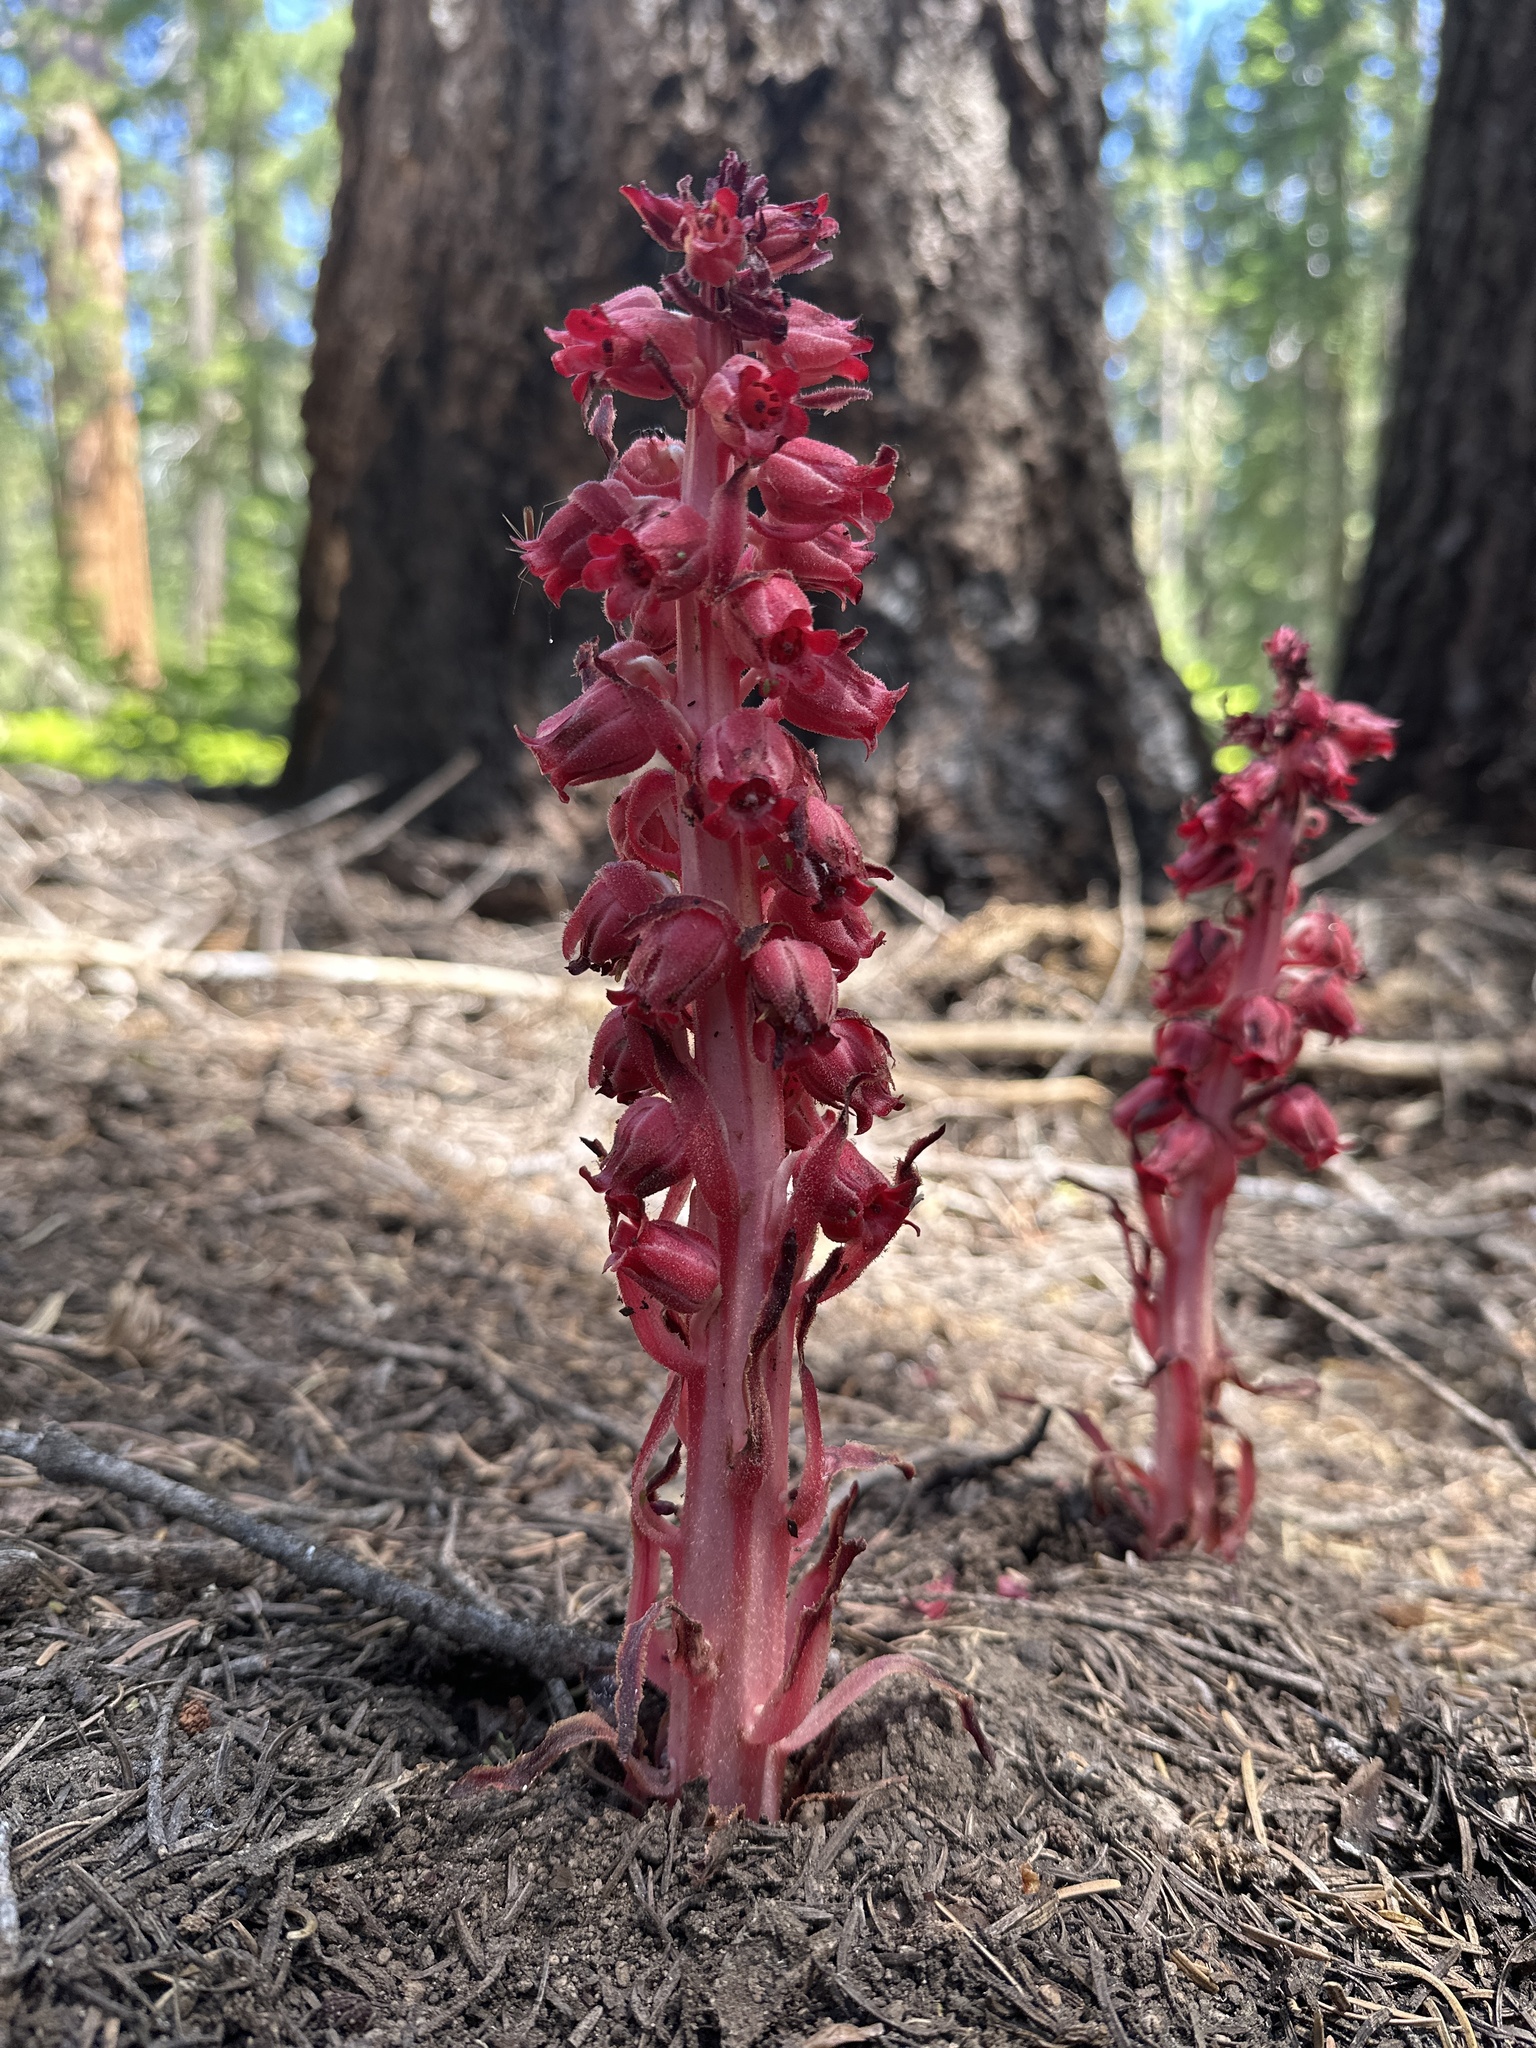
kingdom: Plantae
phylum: Tracheophyta
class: Magnoliopsida
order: Ericales
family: Ericaceae
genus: Sarcodes
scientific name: Sarcodes sanguinea
